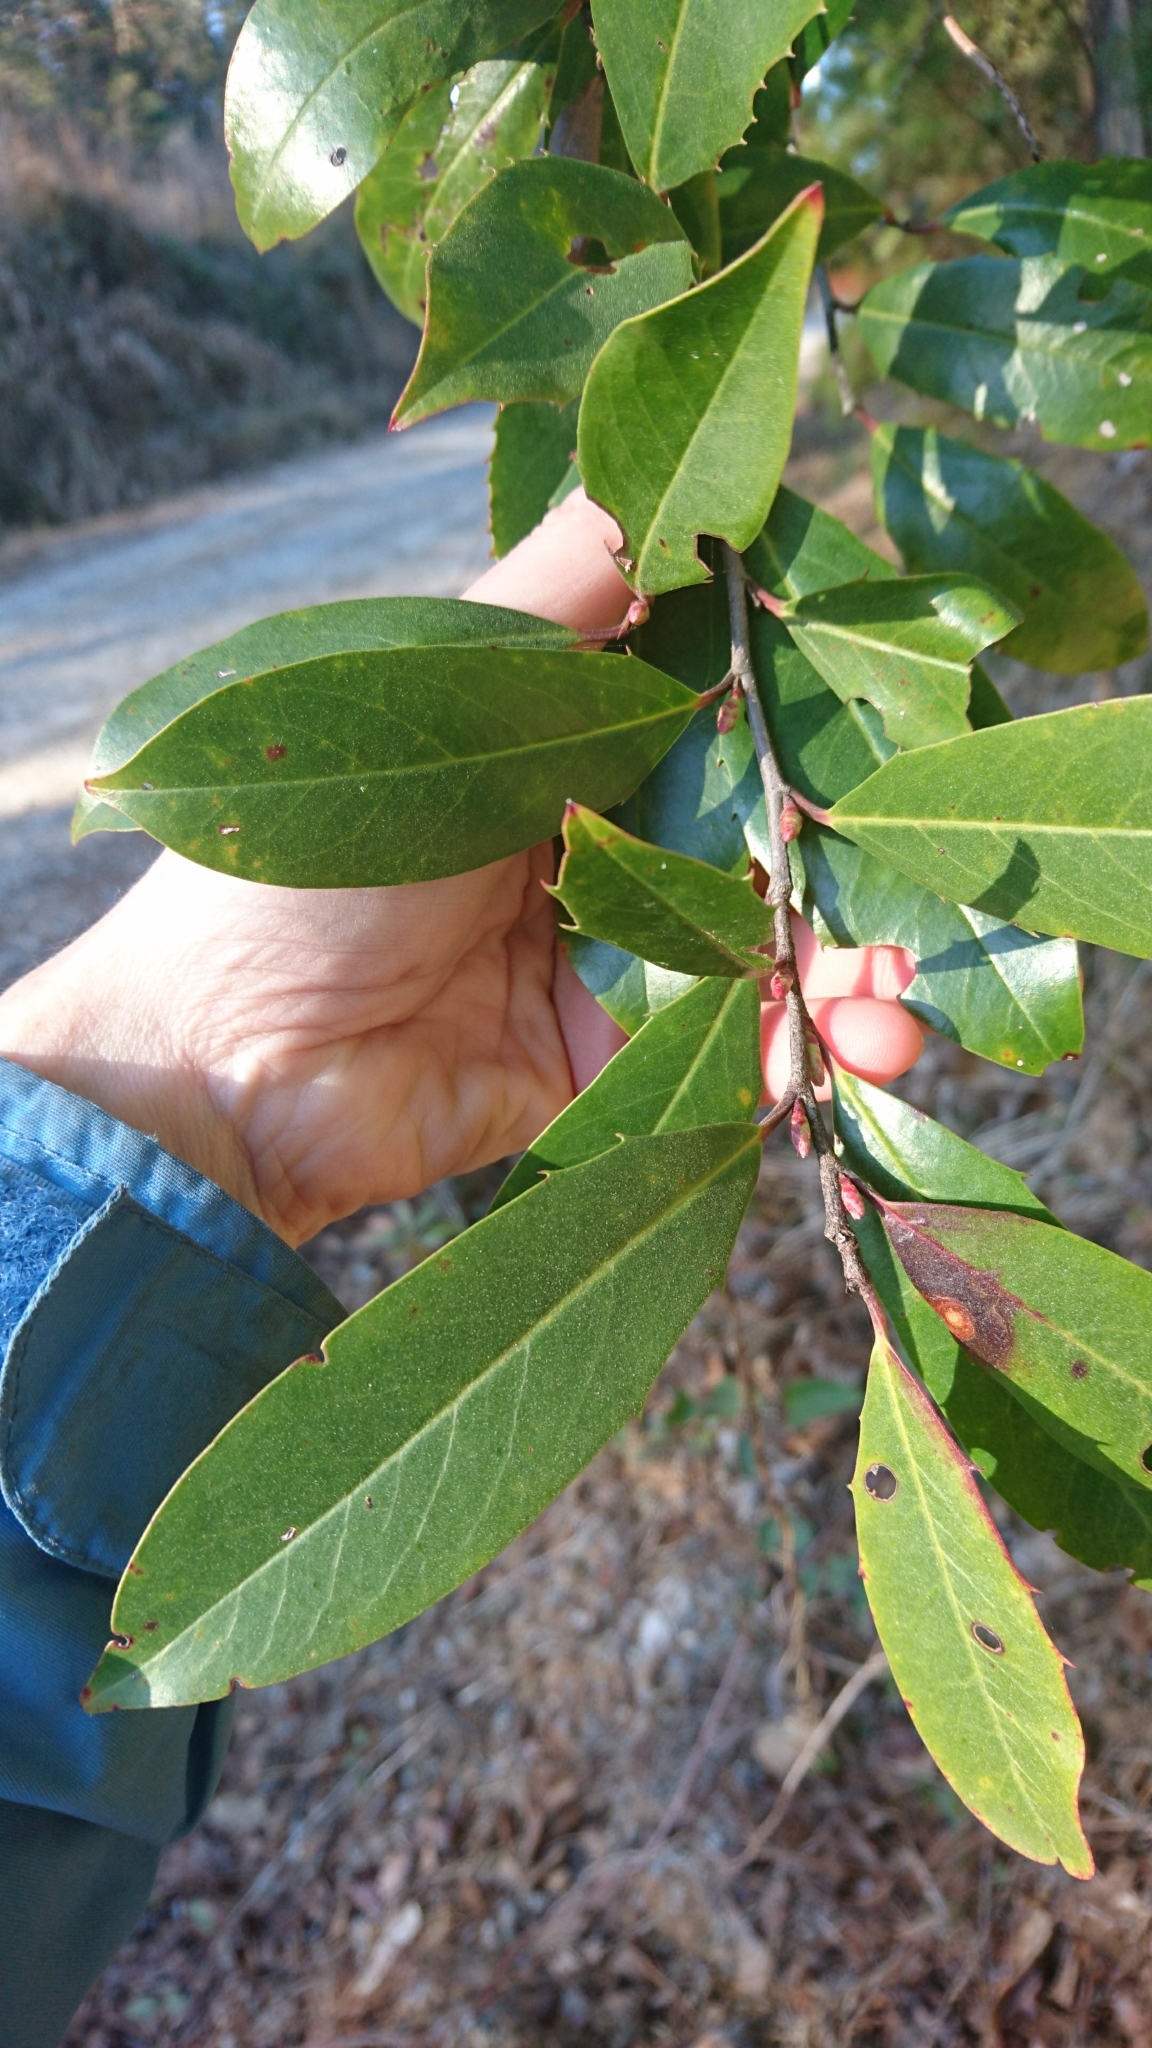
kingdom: Plantae
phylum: Tracheophyta
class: Magnoliopsida
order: Rosales
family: Rosaceae
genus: Prunus
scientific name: Prunus caroliniana
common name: Carolina laurel cherry
